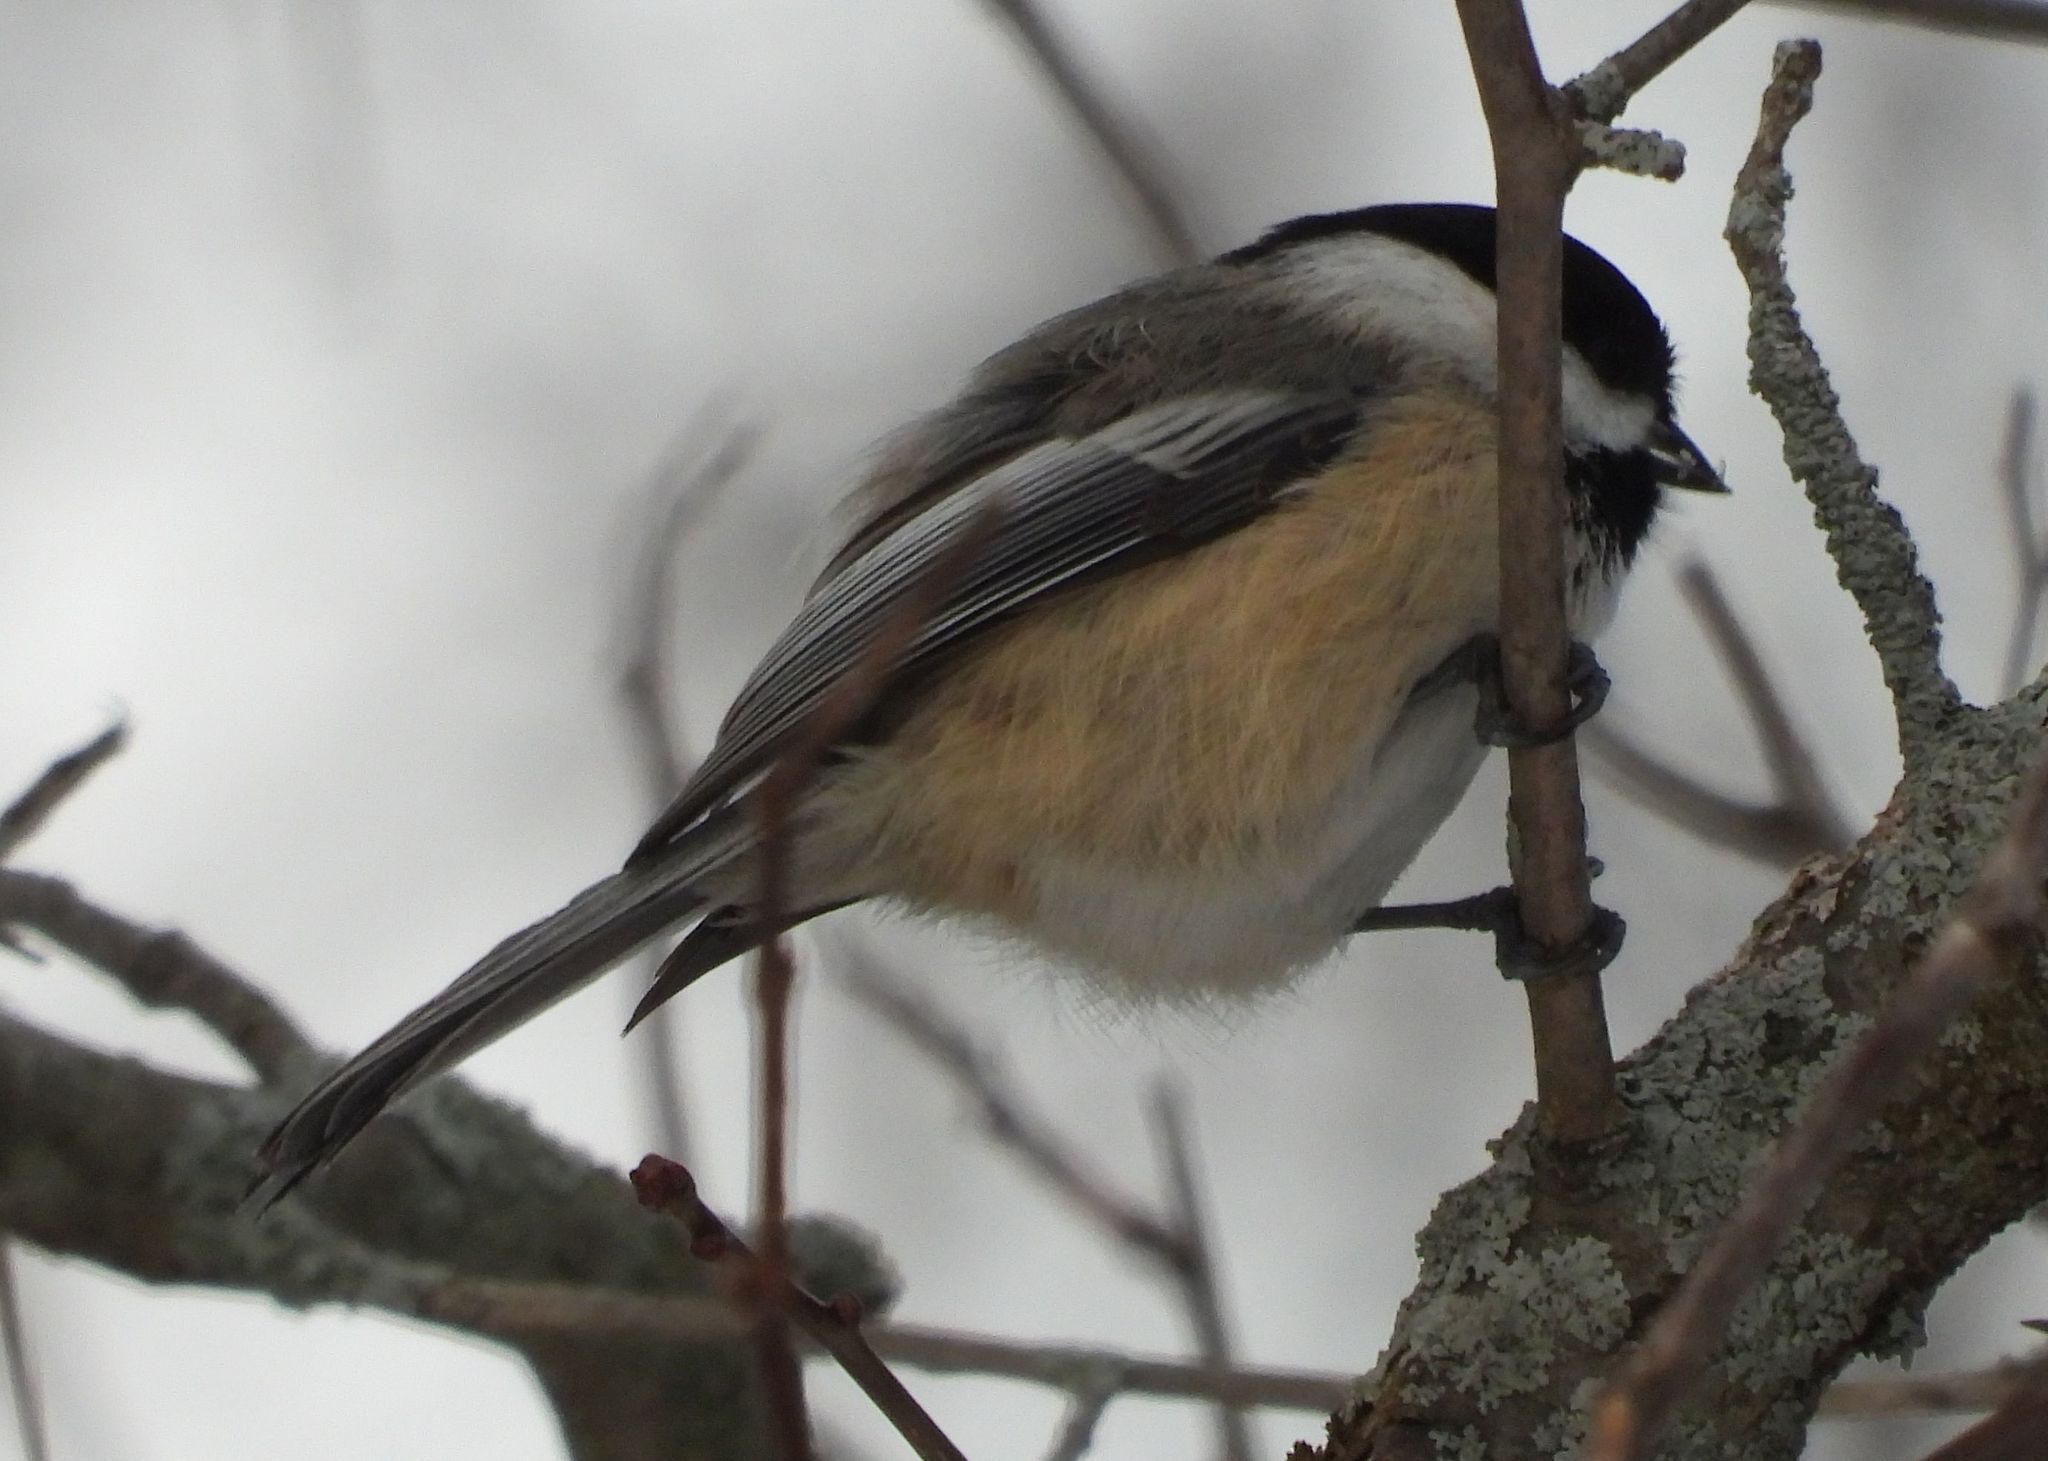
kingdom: Animalia
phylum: Chordata
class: Aves
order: Passeriformes
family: Paridae
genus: Poecile
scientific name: Poecile atricapillus
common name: Black-capped chickadee
